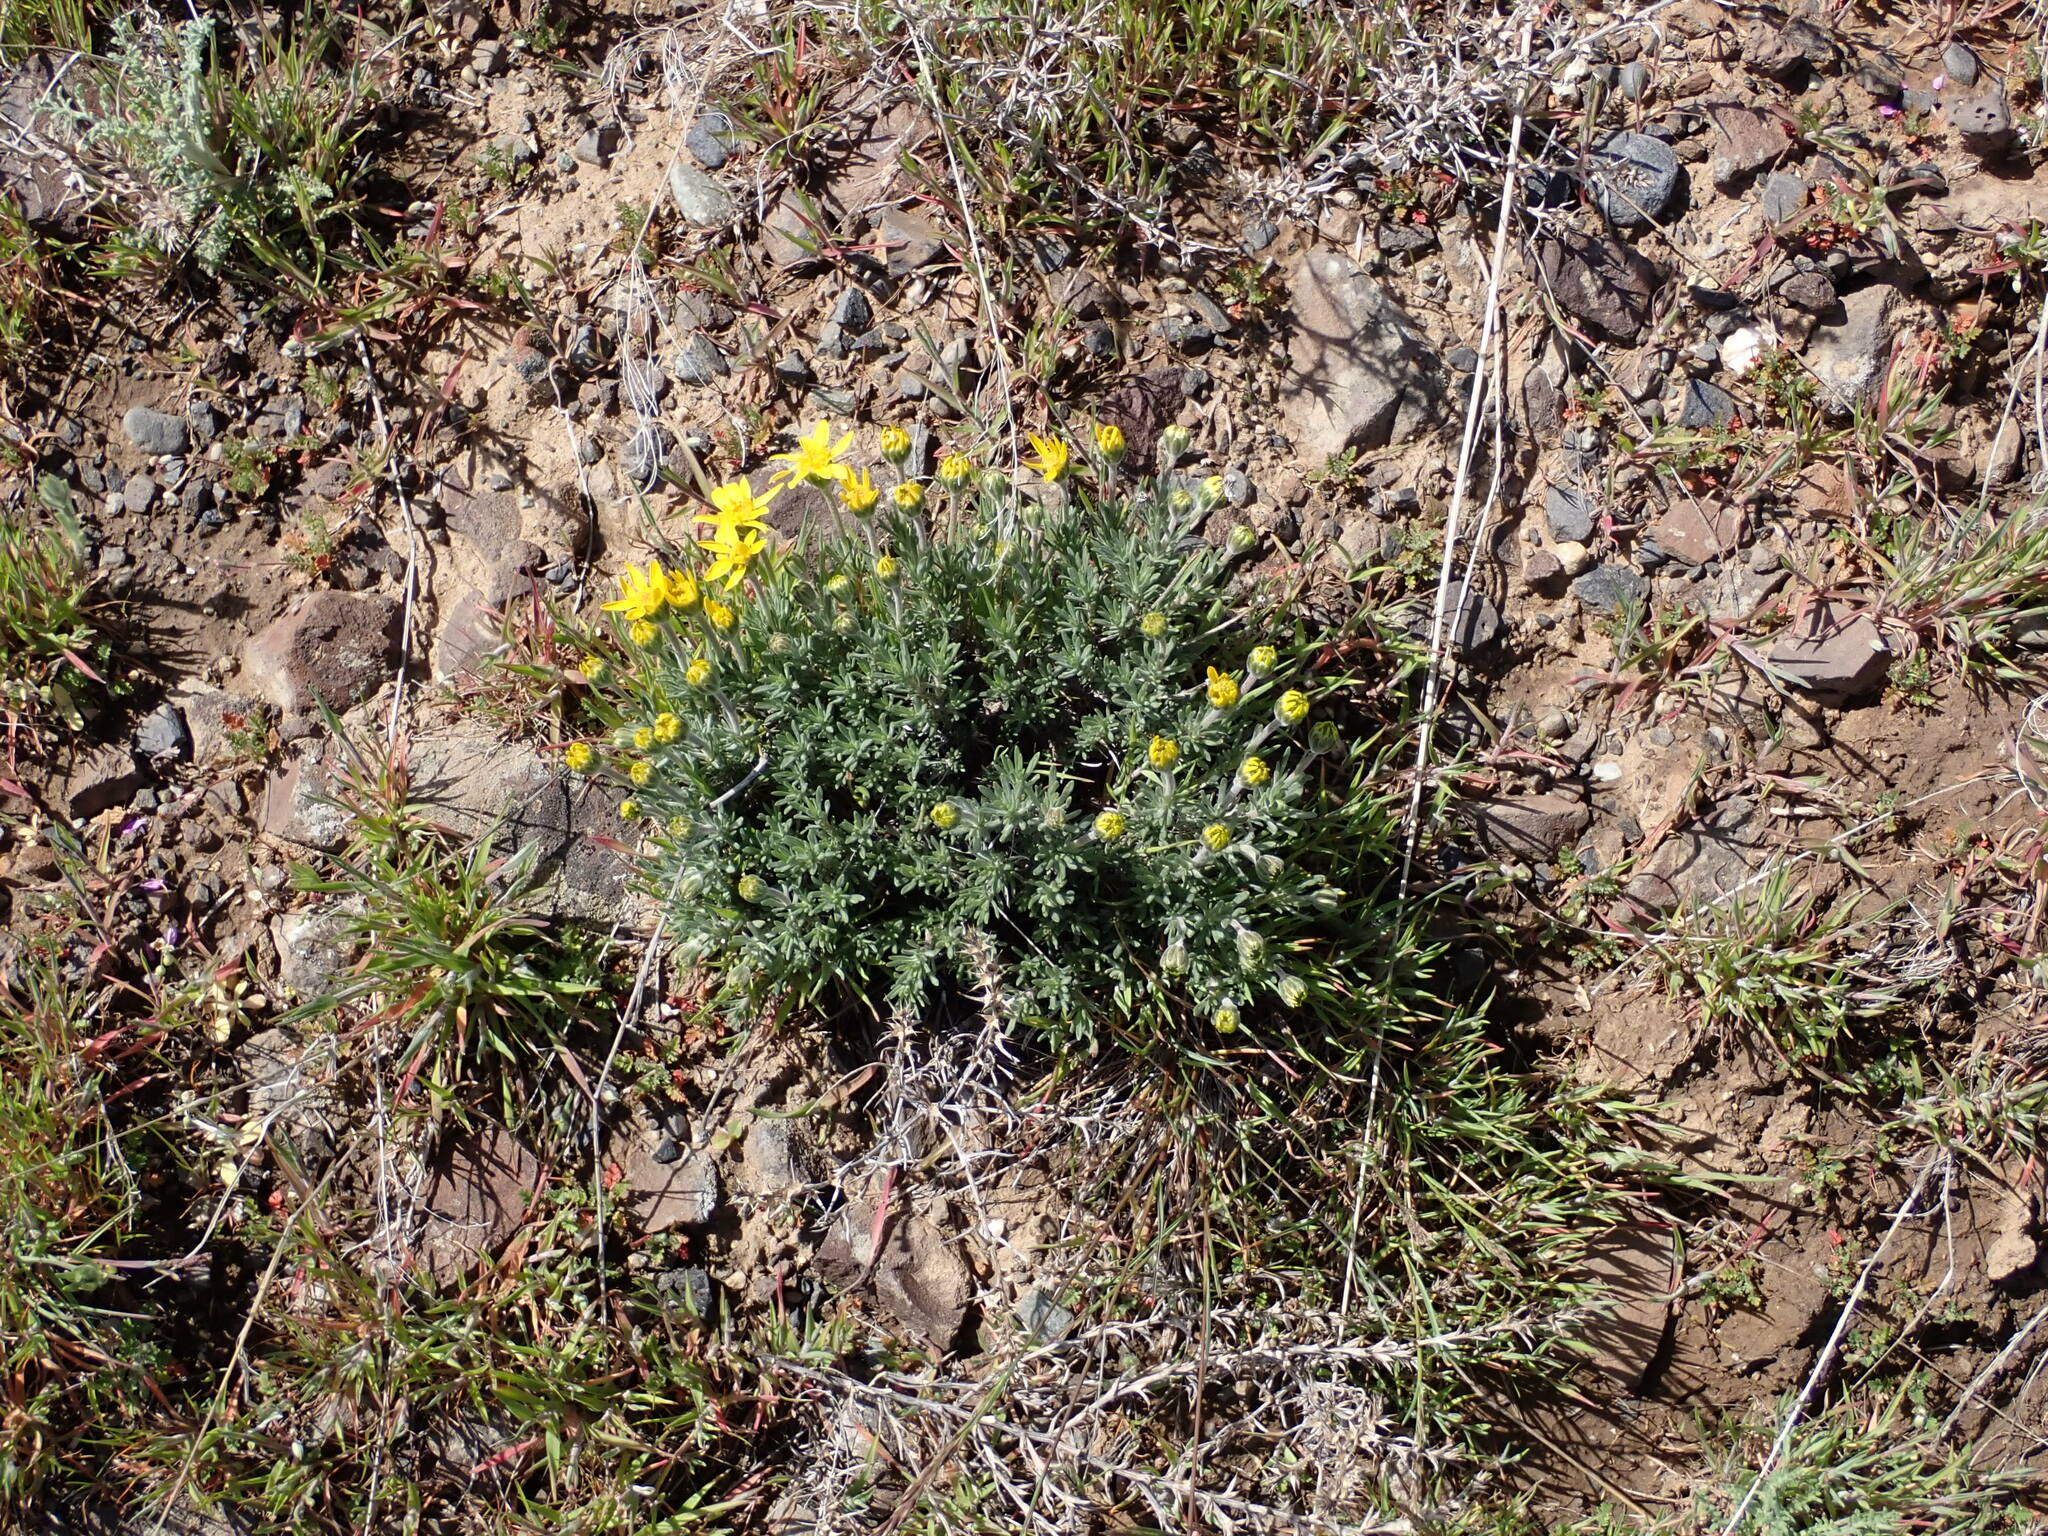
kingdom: Plantae
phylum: Tracheophyta
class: Magnoliopsida
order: Asterales
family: Asteraceae
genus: Nestotus
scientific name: Nestotus stenophyllus
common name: Narrow-leaf mock goldenweed
